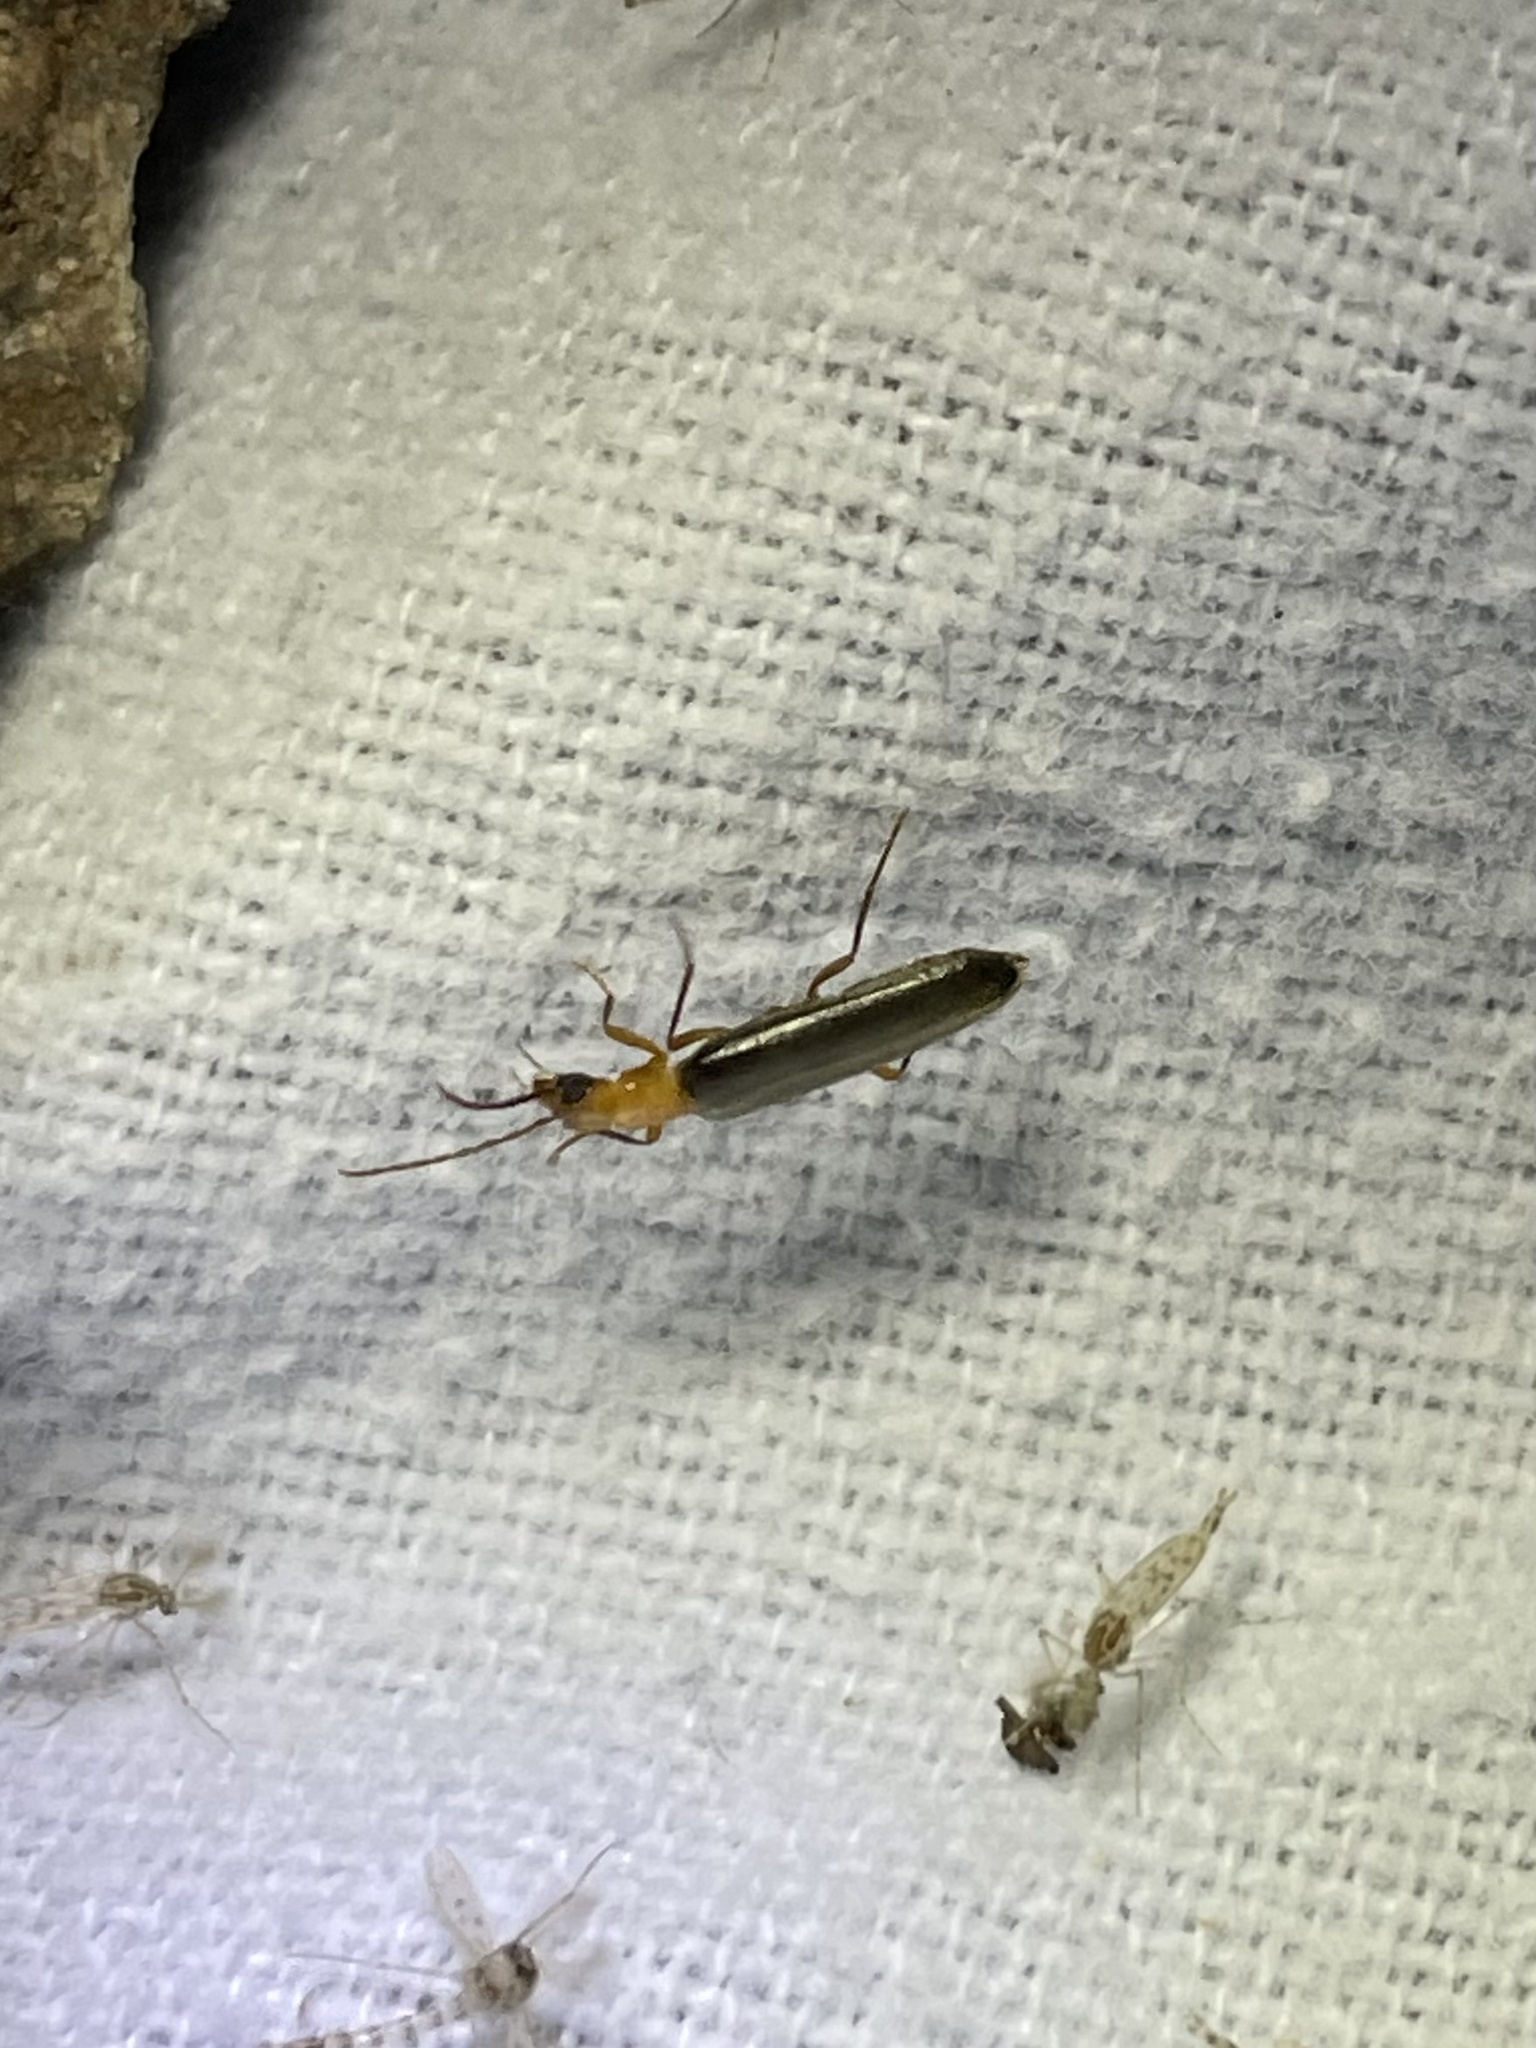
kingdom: Animalia
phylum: Arthropoda
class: Insecta
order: Coleoptera
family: Oedemeridae
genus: Xanthochroina
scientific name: Xanthochroina bicolor
